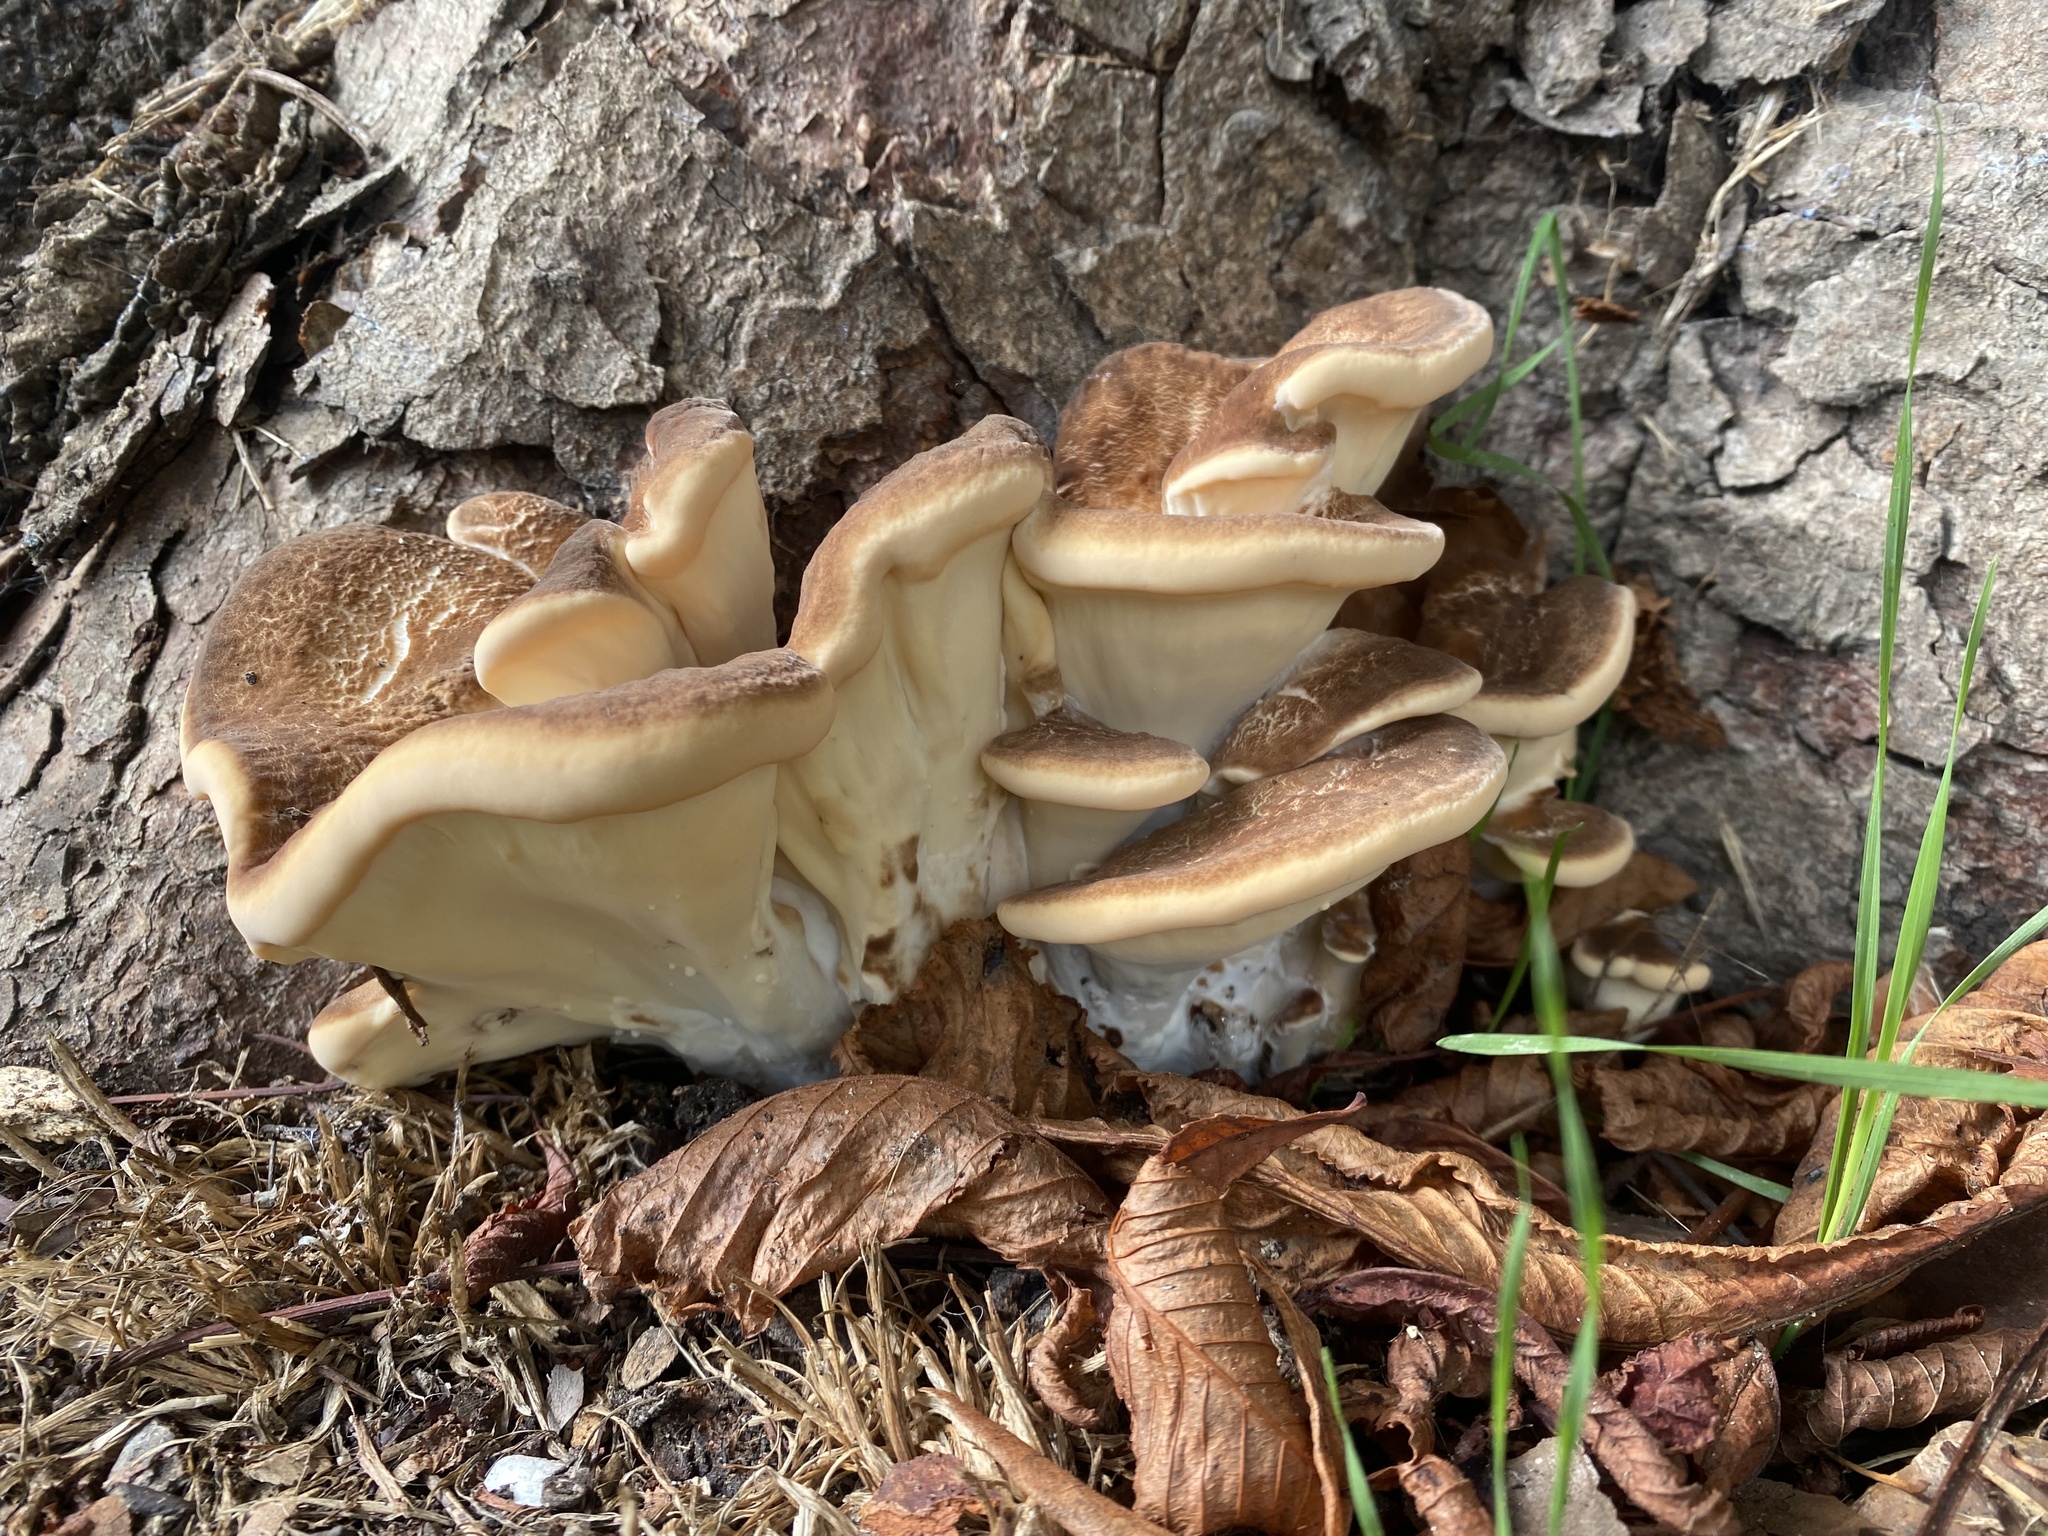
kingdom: Fungi
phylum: Basidiomycota
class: Agaricomycetes
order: Polyporales
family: Meripilaceae
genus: Meripilus
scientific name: Meripilus giganteus
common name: Giant polypore
